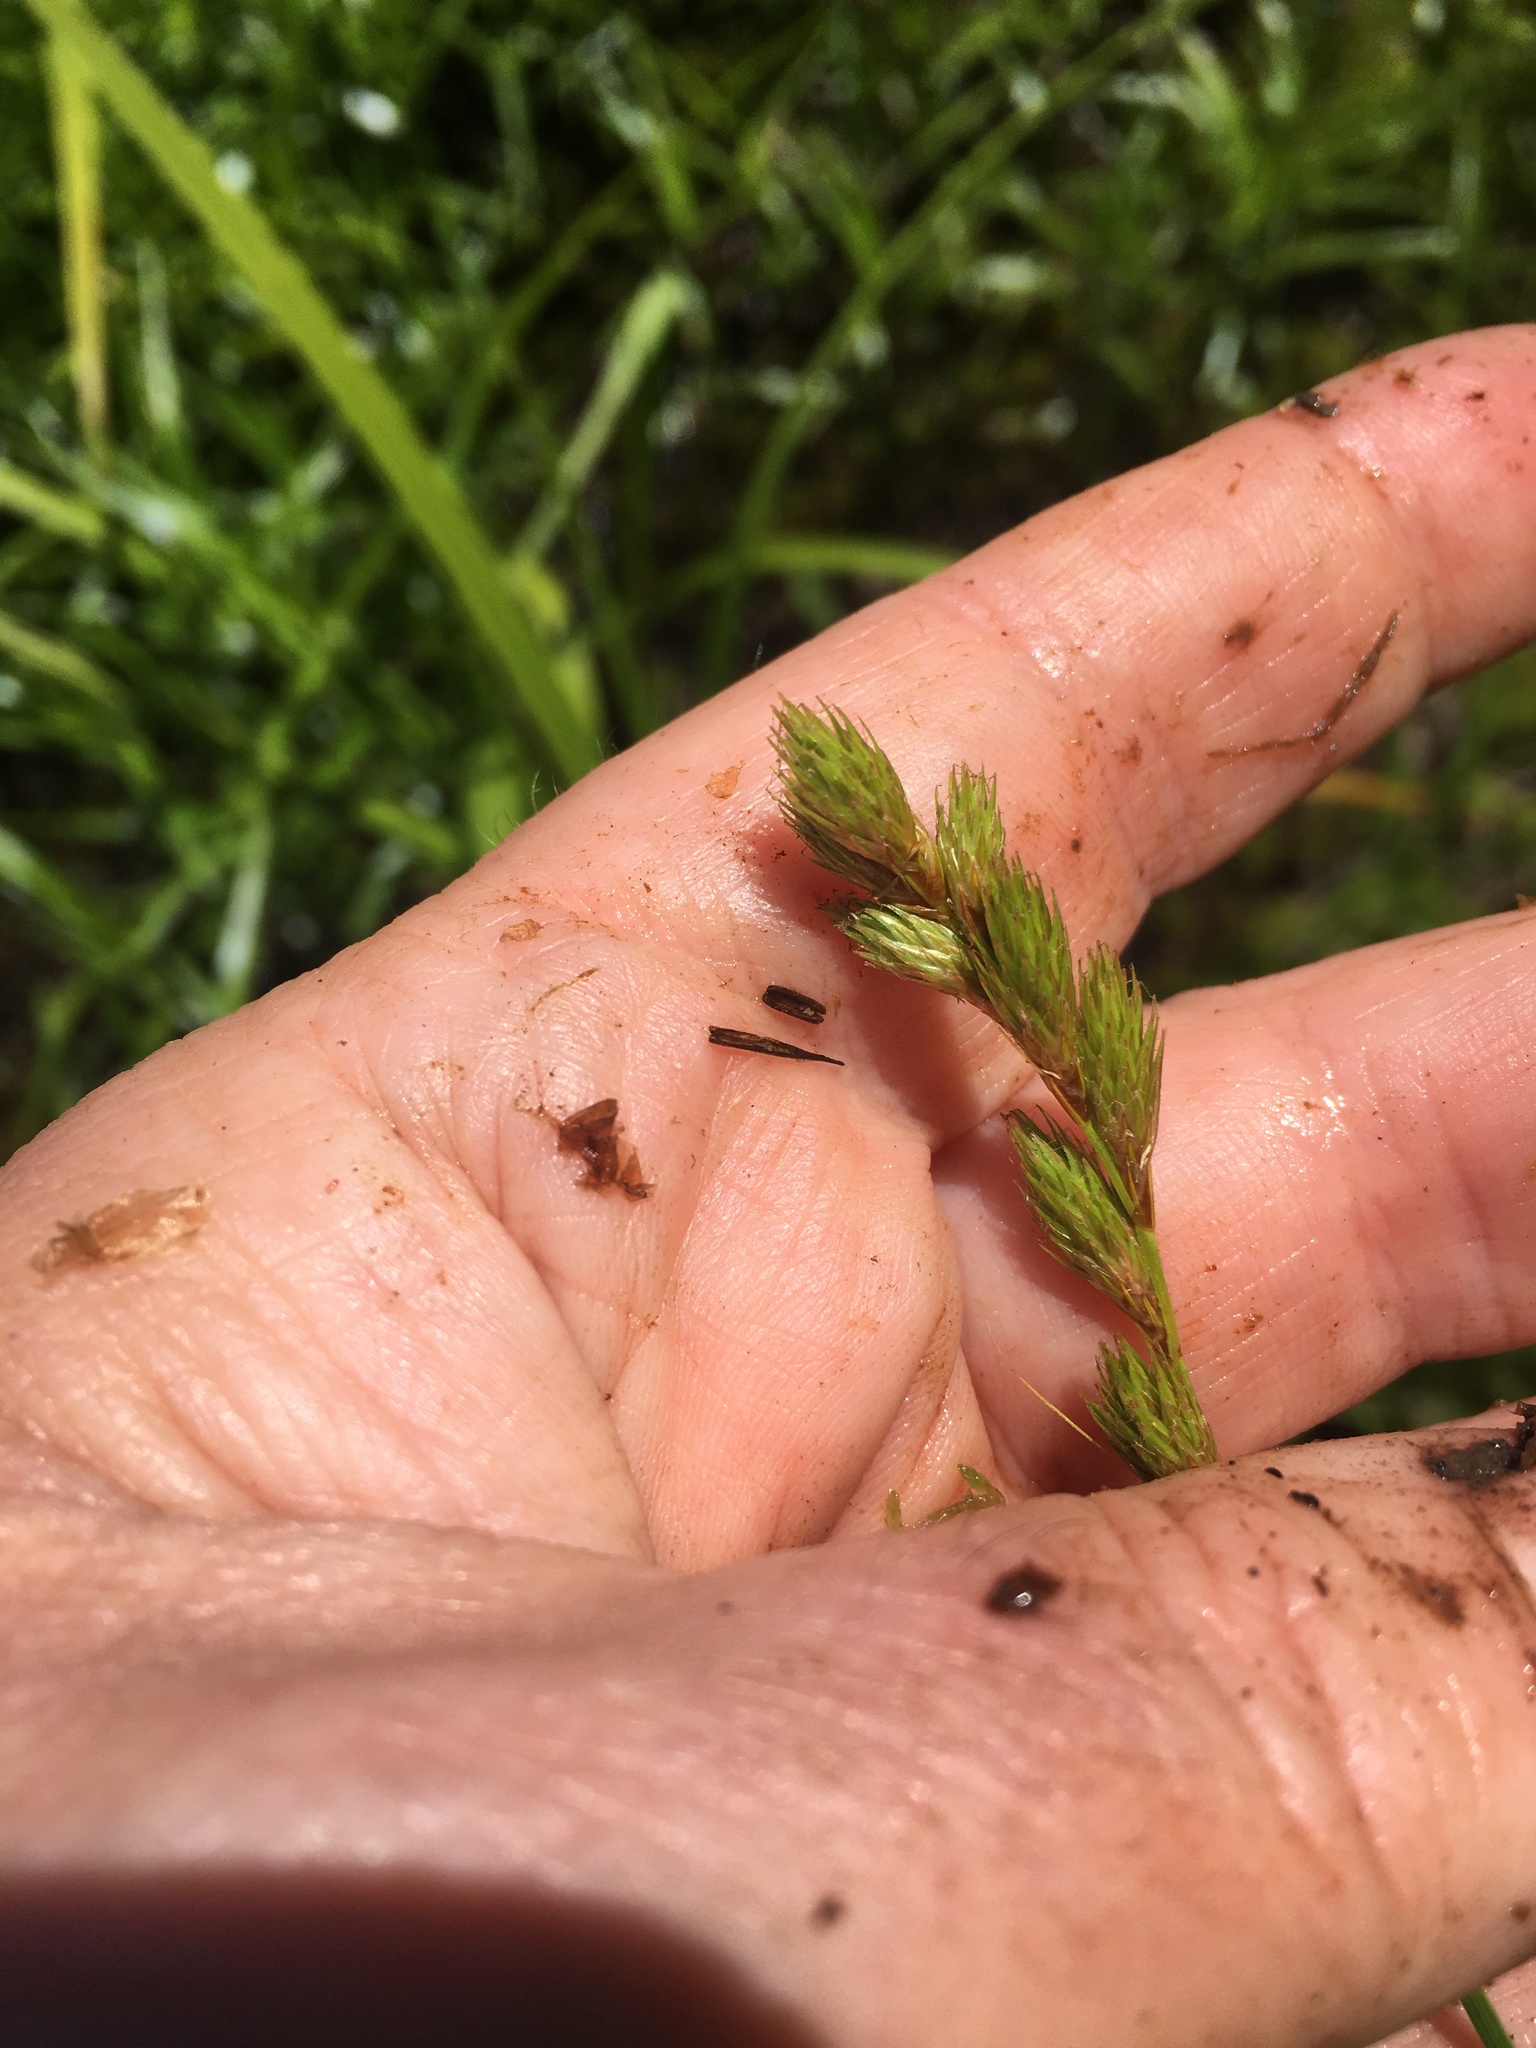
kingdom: Plantae
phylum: Tracheophyta
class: Liliopsida
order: Poales
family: Cyperaceae
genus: Carex
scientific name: Carex scoparia
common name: Broom sedge
